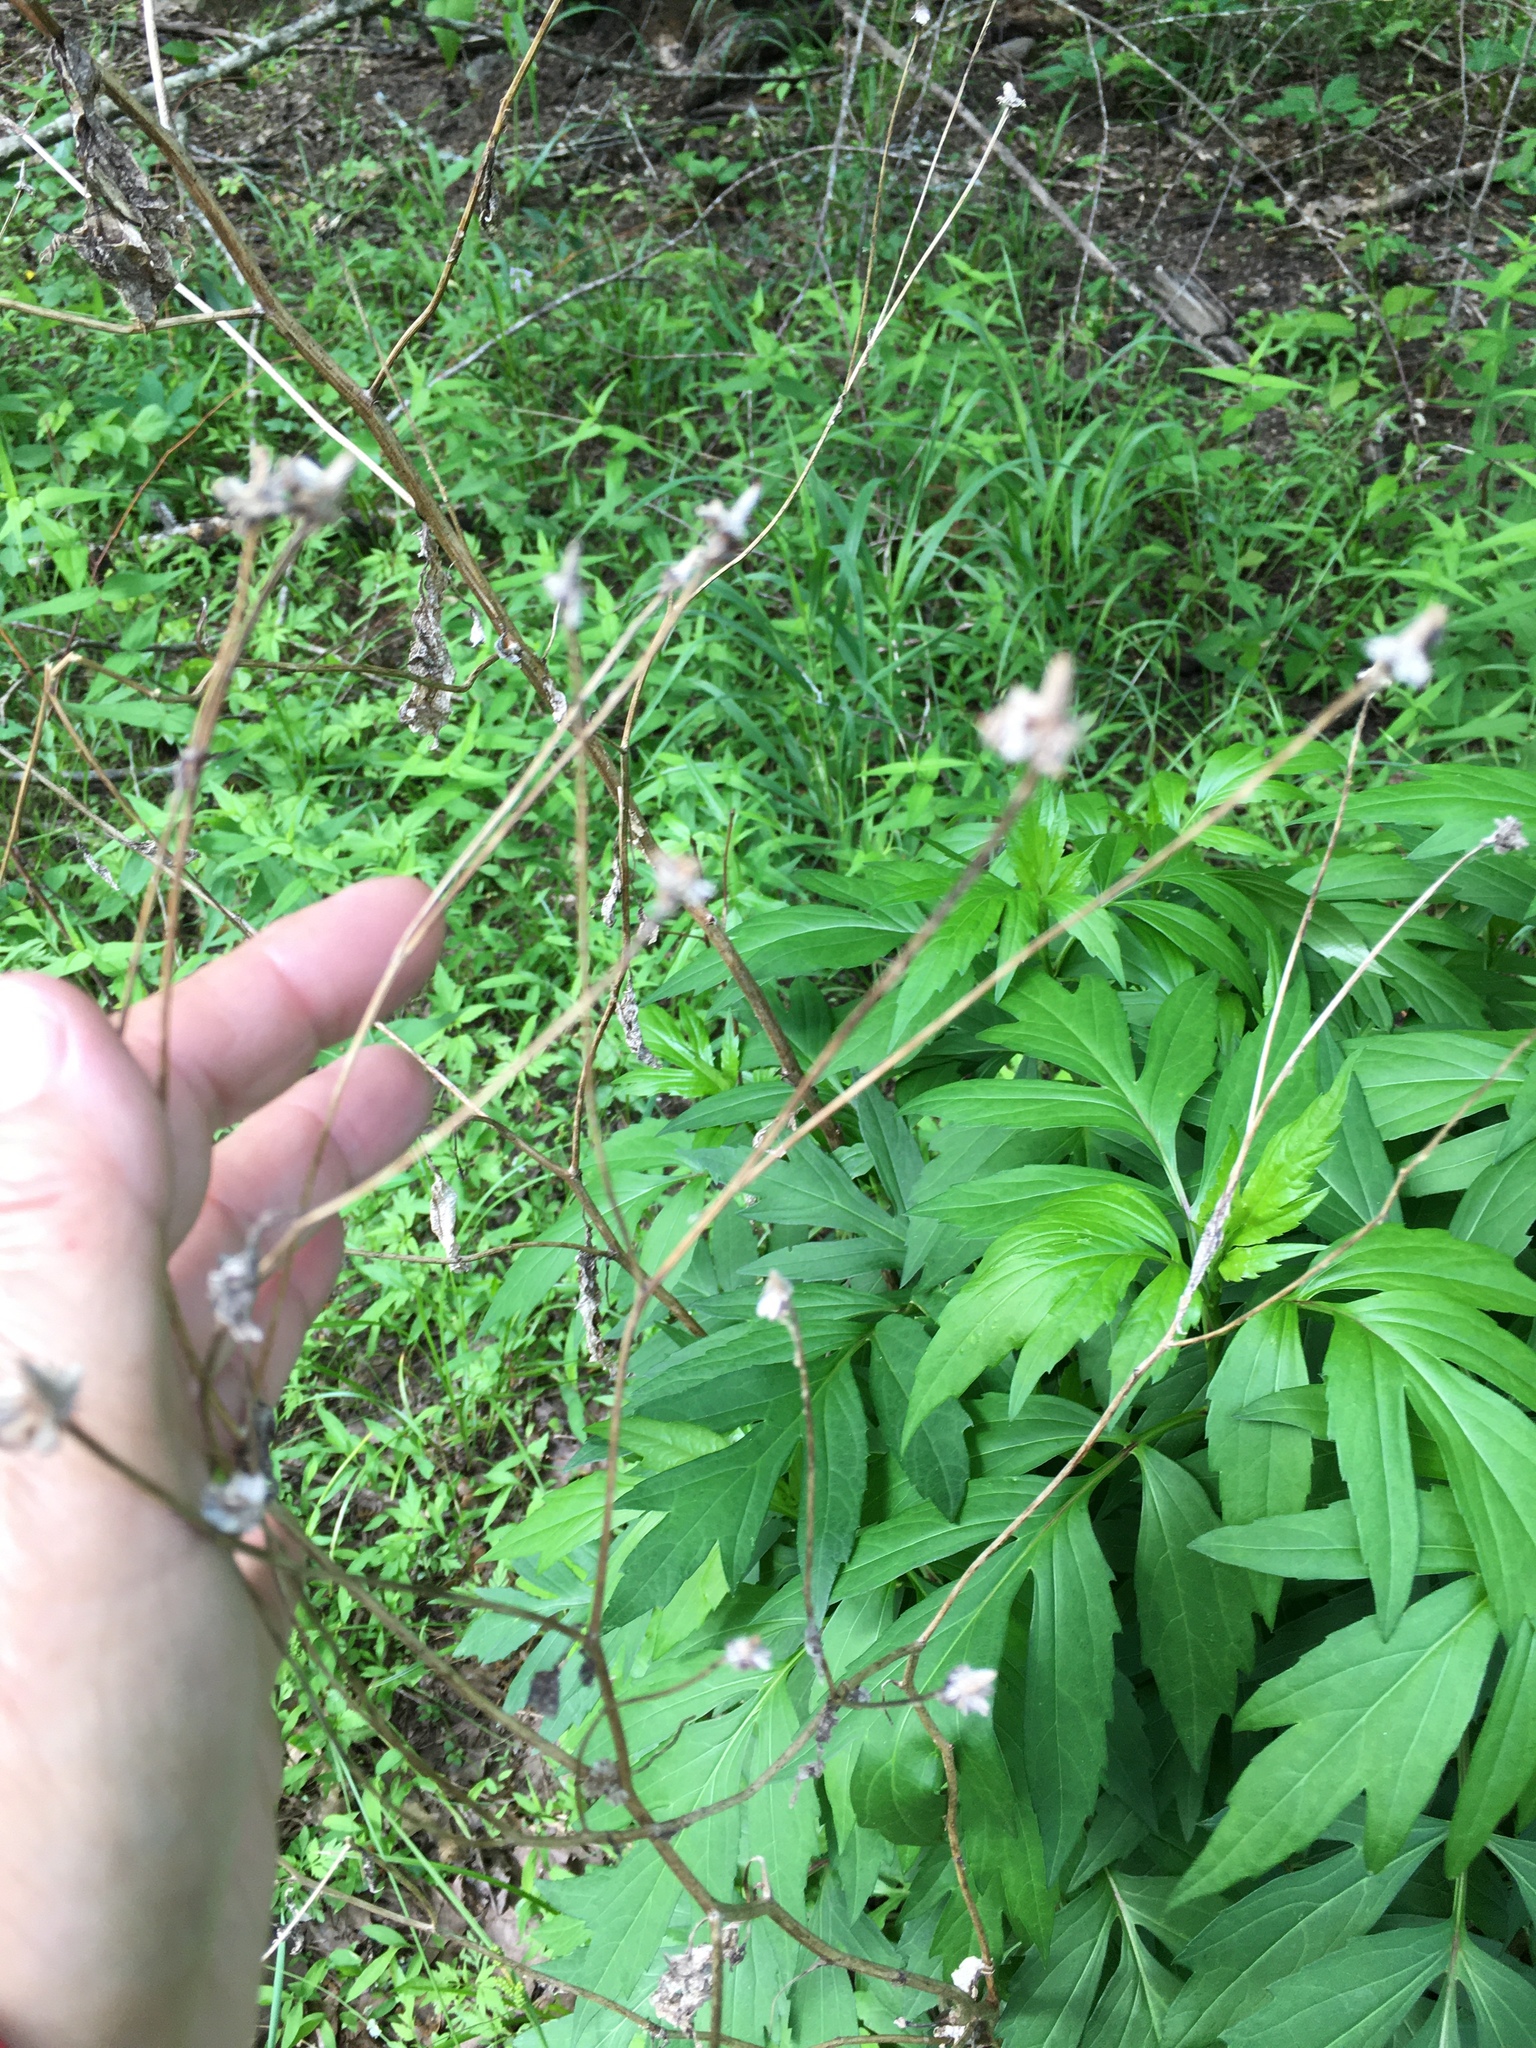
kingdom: Plantae
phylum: Tracheophyta
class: Magnoliopsida
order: Asterales
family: Asteraceae
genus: Rudbeckia
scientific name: Rudbeckia laciniata
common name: Coneflower
